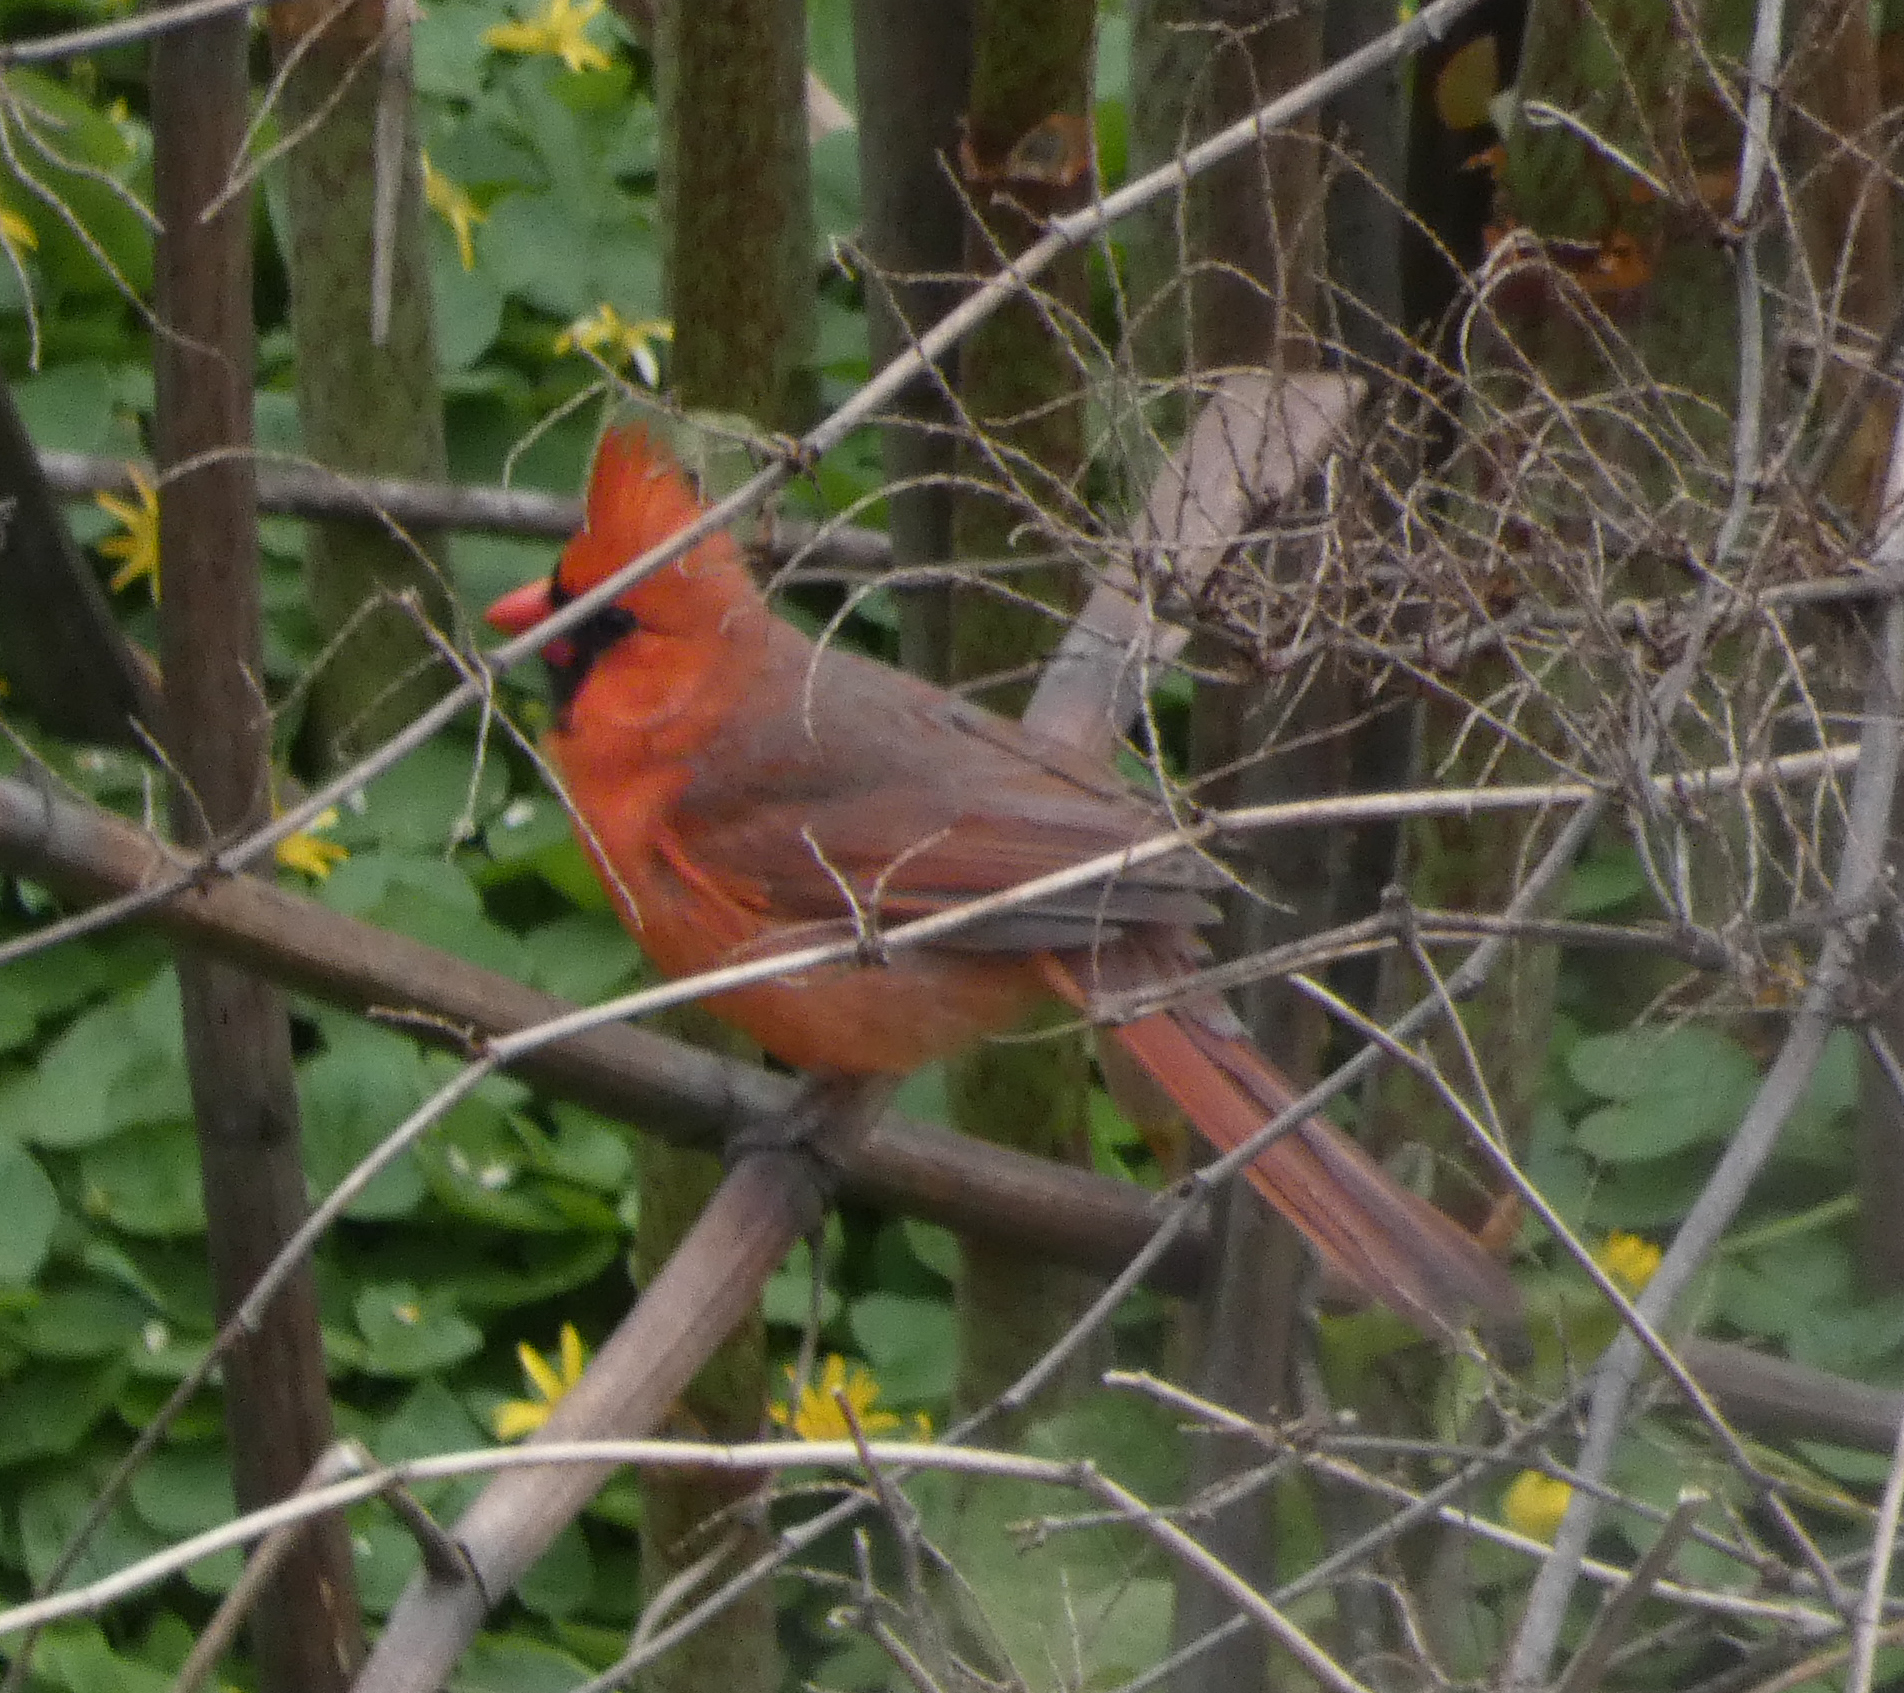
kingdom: Animalia
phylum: Chordata
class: Aves
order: Passeriformes
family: Cardinalidae
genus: Cardinalis
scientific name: Cardinalis cardinalis
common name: Northern cardinal
